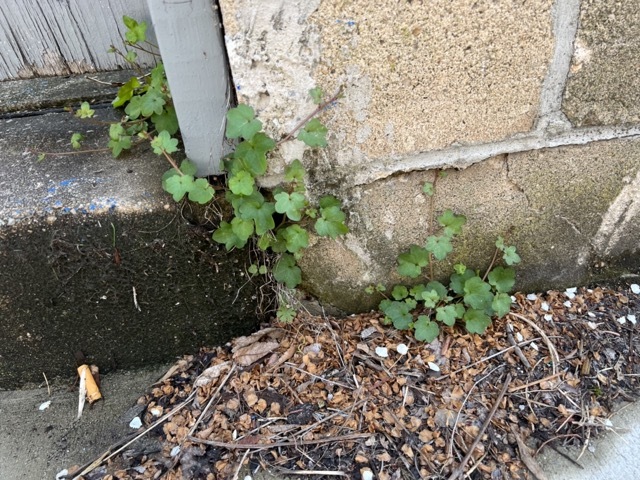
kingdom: Plantae
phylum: Tracheophyta
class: Magnoliopsida
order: Lamiales
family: Plantaginaceae
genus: Cymbalaria
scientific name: Cymbalaria muralis
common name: Ivy-leaved toadflax
